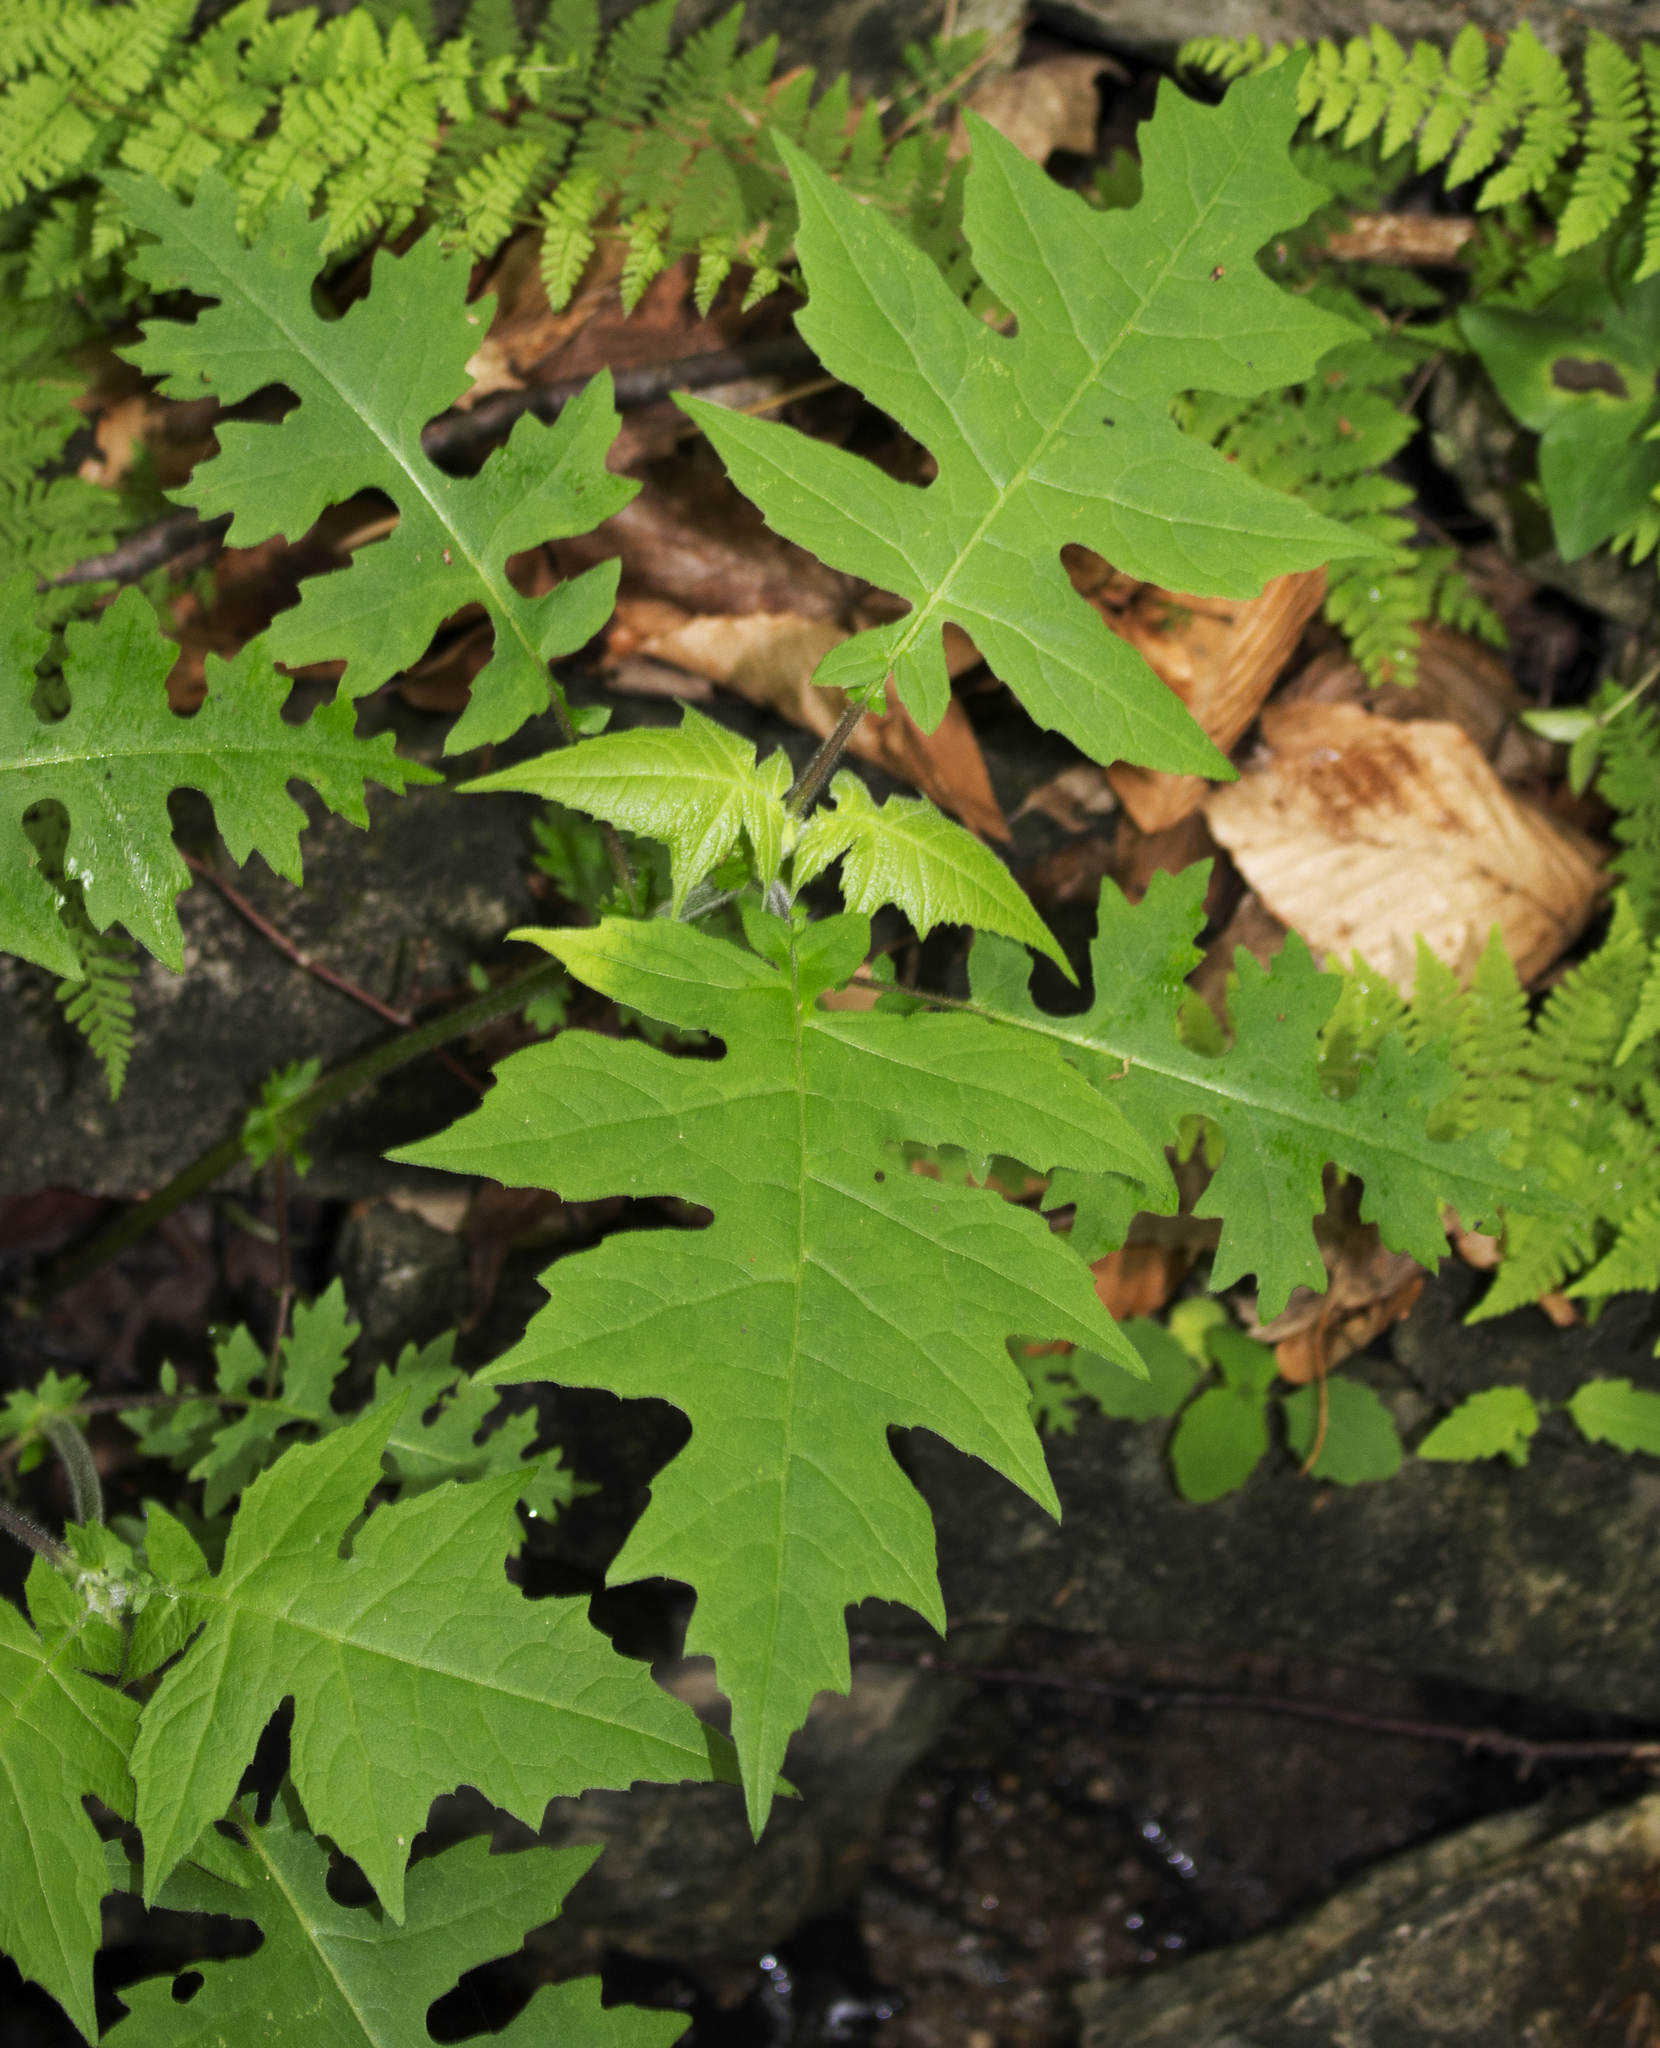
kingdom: Plantae
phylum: Tracheophyta
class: Magnoliopsida
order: Asterales
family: Asteraceae
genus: Polymnia
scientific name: Polymnia canadensis
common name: Pale-flowered leafcup
